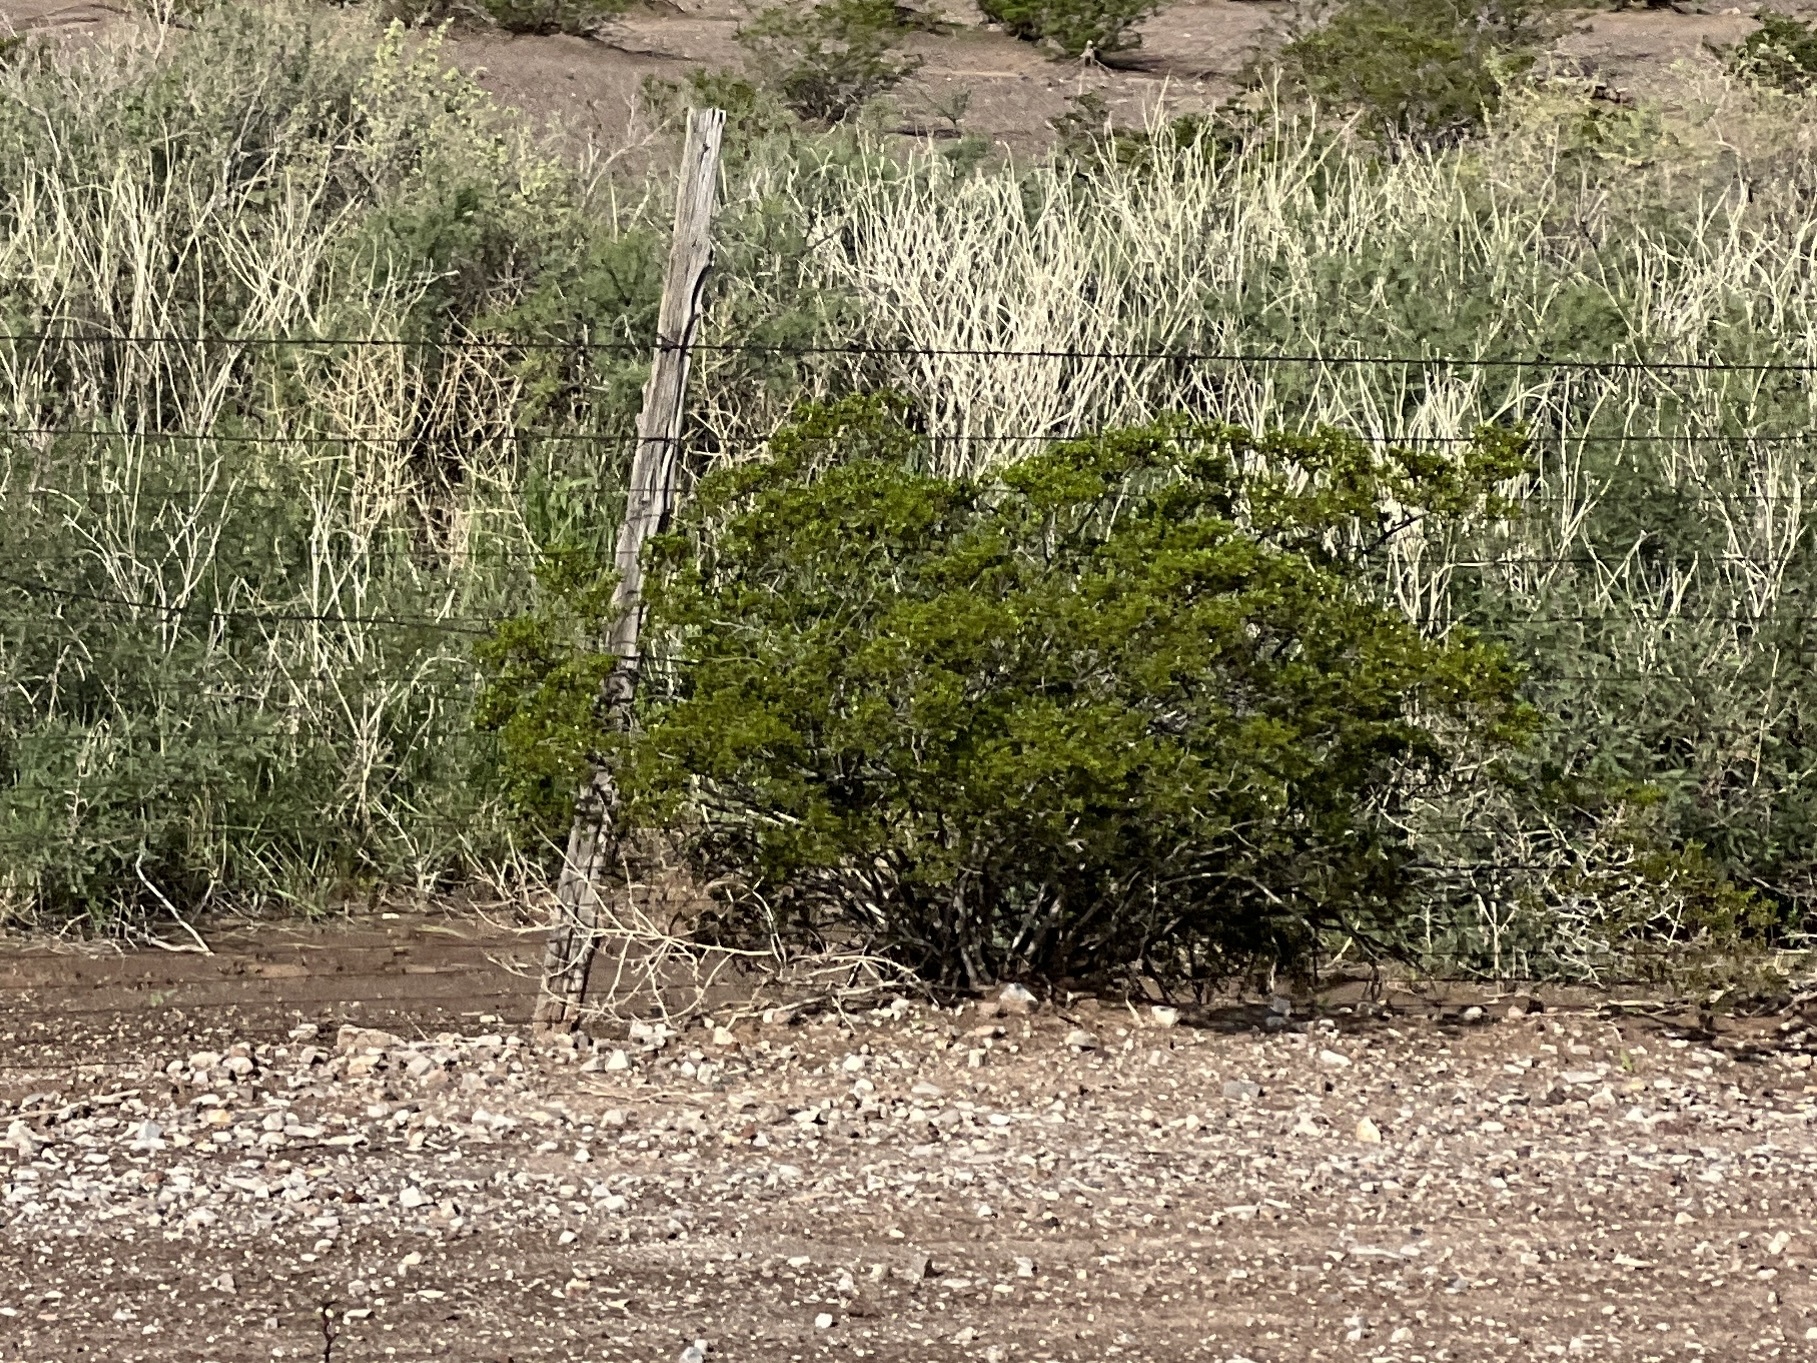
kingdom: Plantae
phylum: Tracheophyta
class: Magnoliopsida
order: Zygophyllales
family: Zygophyllaceae
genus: Larrea
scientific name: Larrea tridentata
